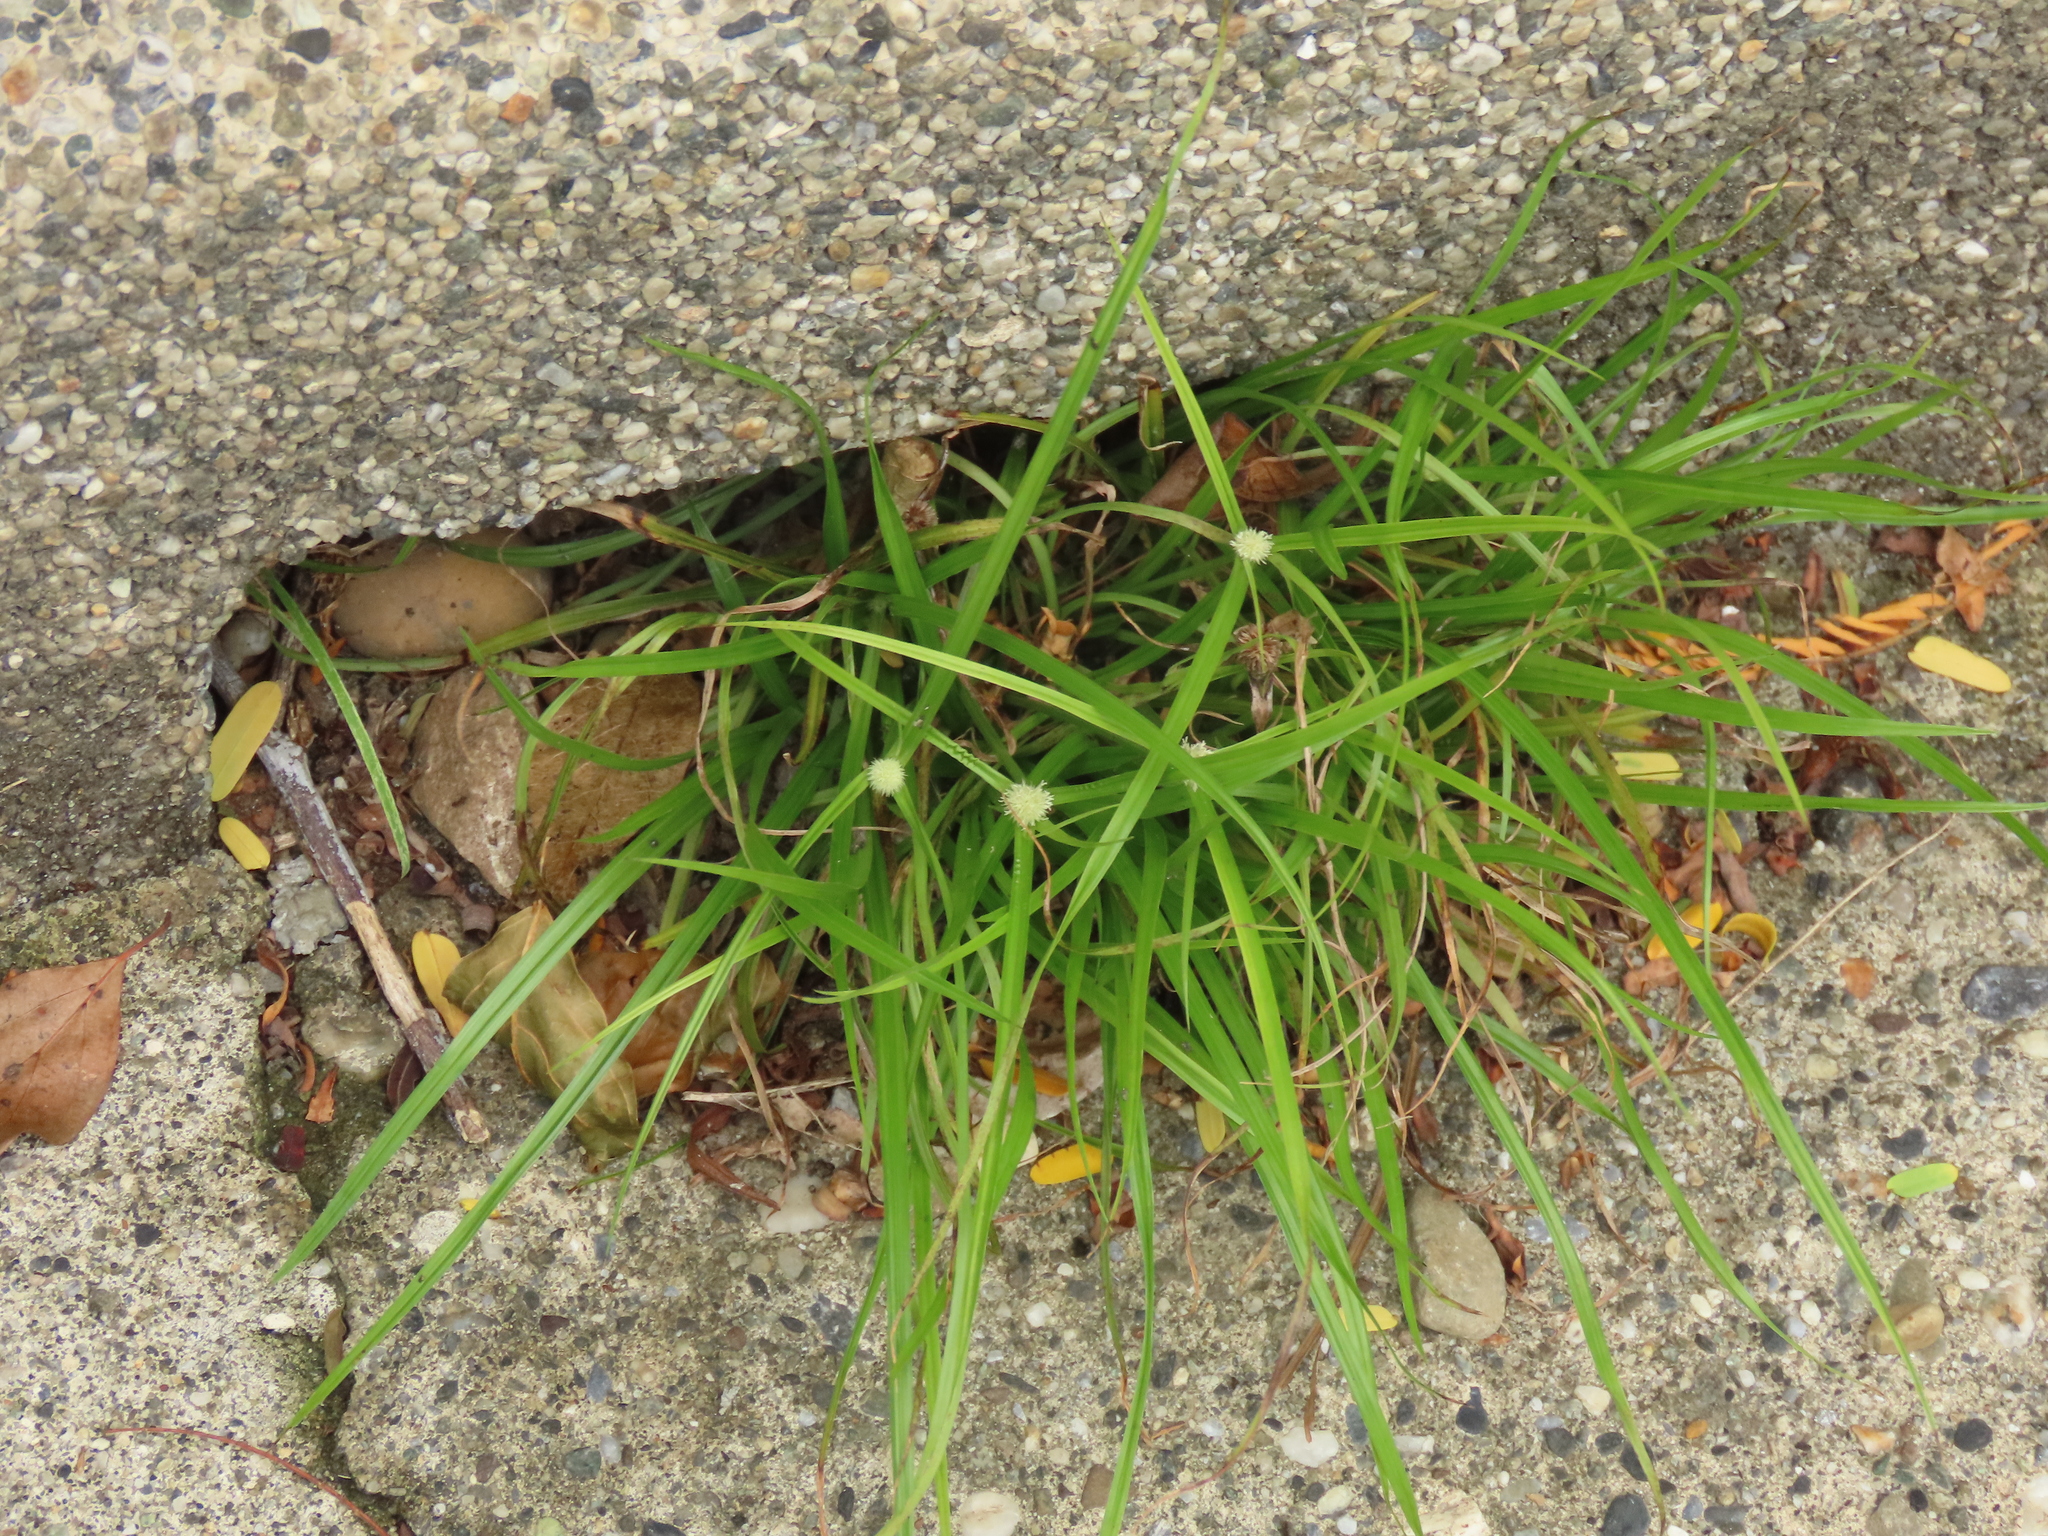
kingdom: Plantae
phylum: Tracheophyta
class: Liliopsida
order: Poales
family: Cyperaceae
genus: Cyperus
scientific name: Cyperus mindorensis
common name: Flatsedge
